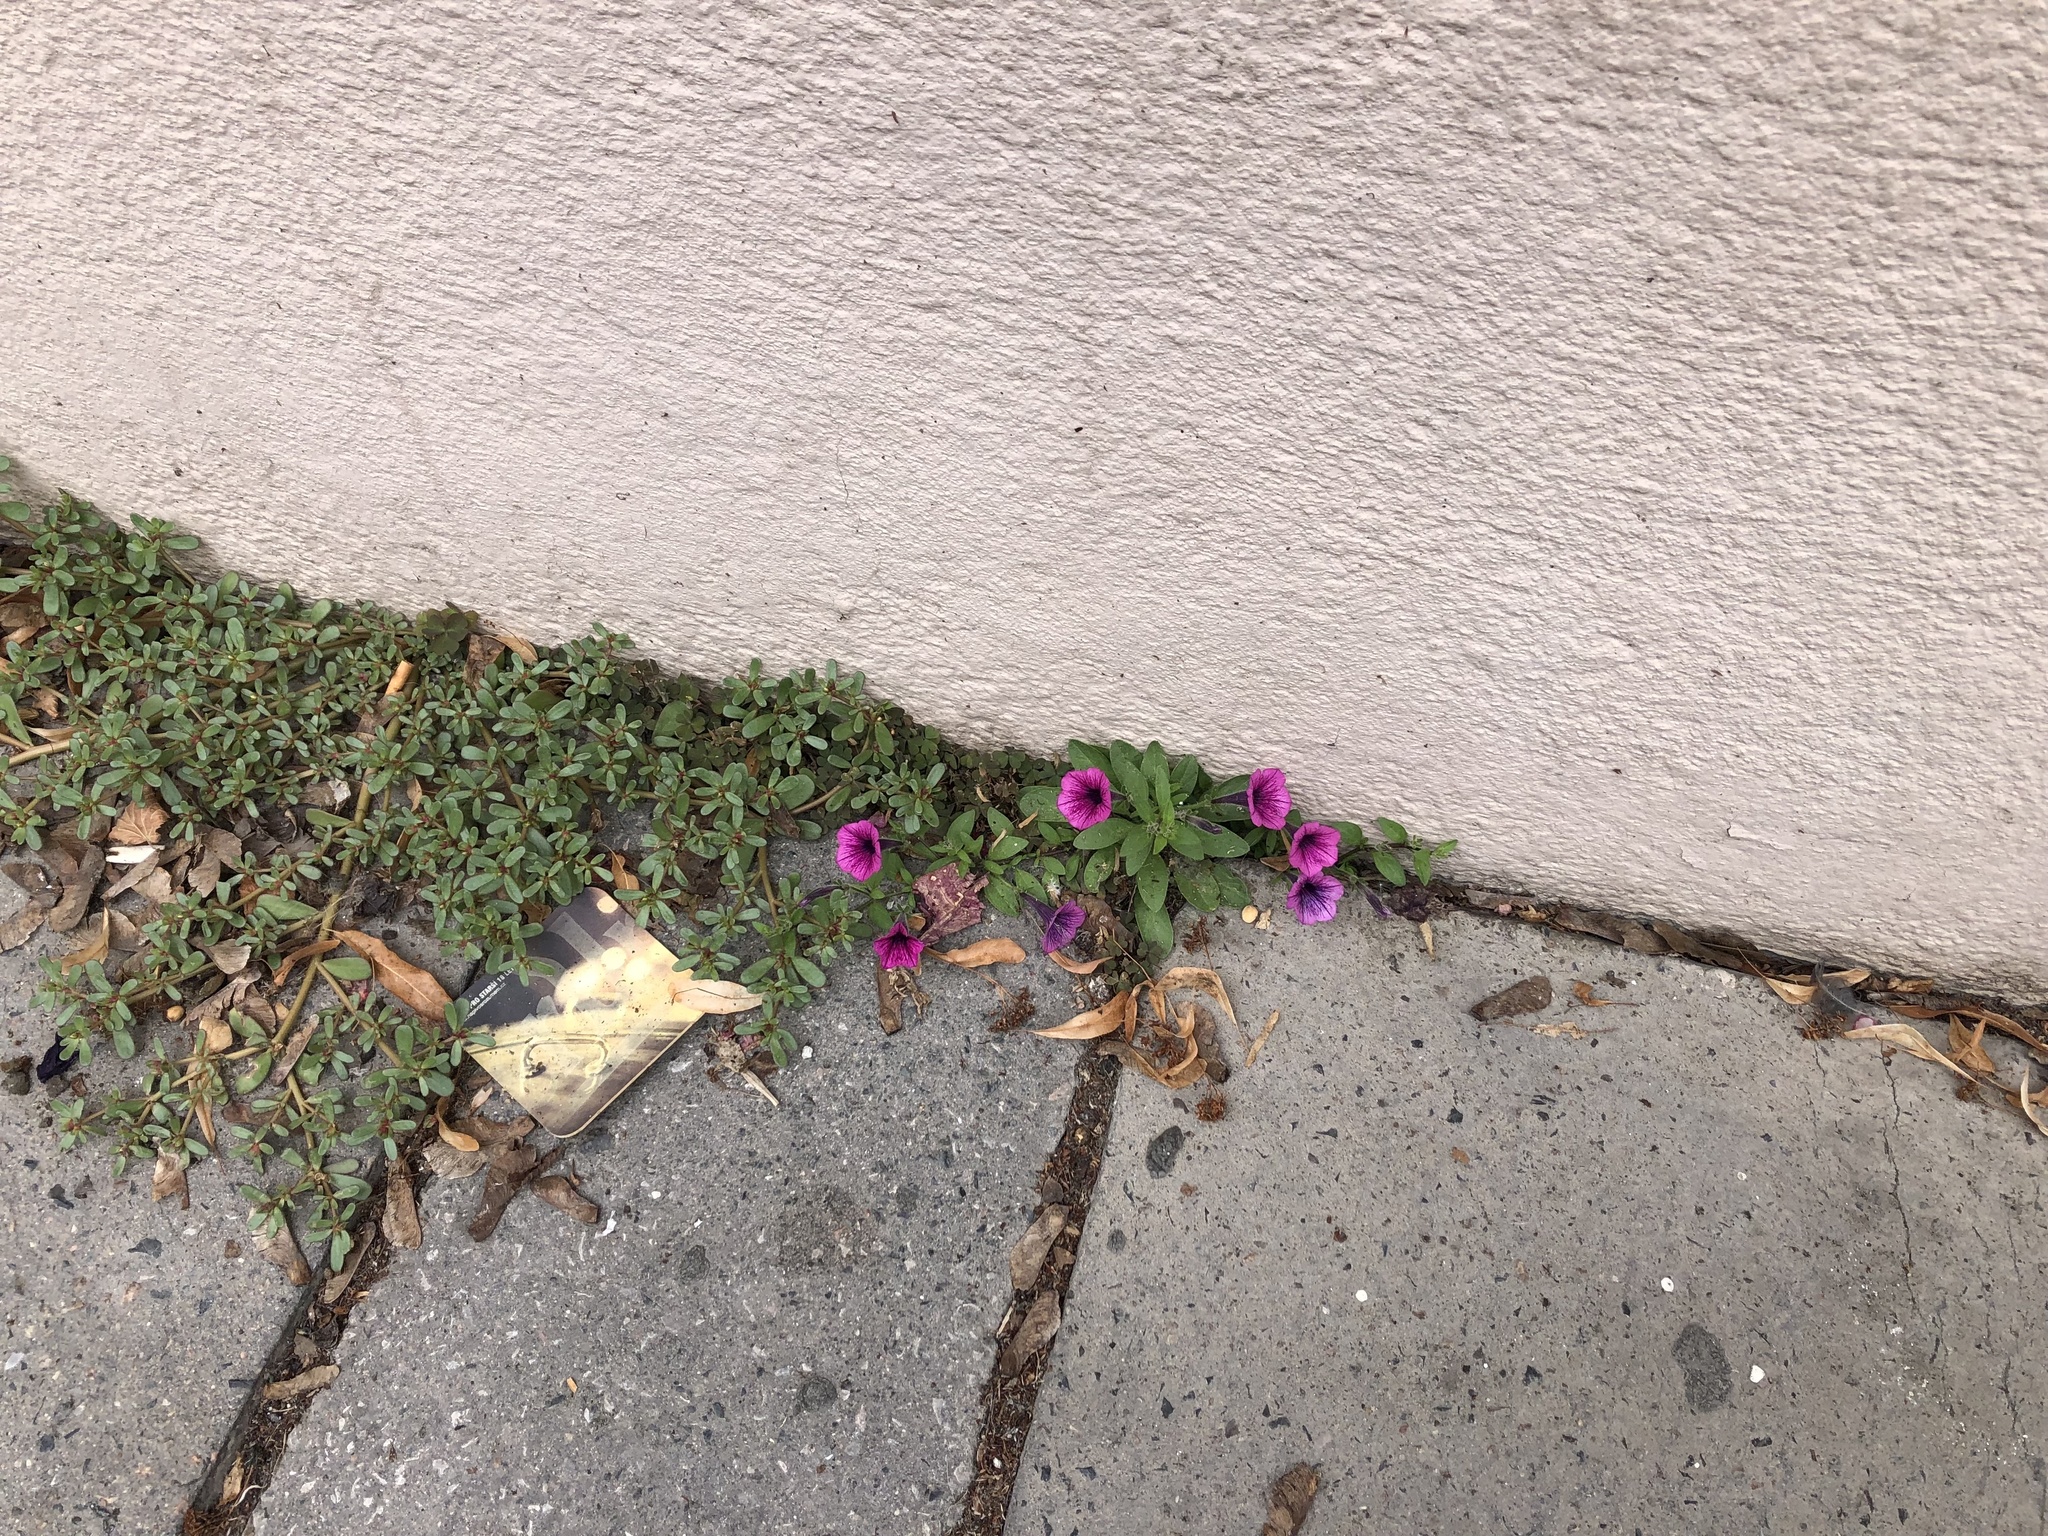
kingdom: Plantae
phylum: Tracheophyta
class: Magnoliopsida
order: Solanales
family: Solanaceae
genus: Petunia
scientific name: Petunia atkinsiana
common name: Petunia
